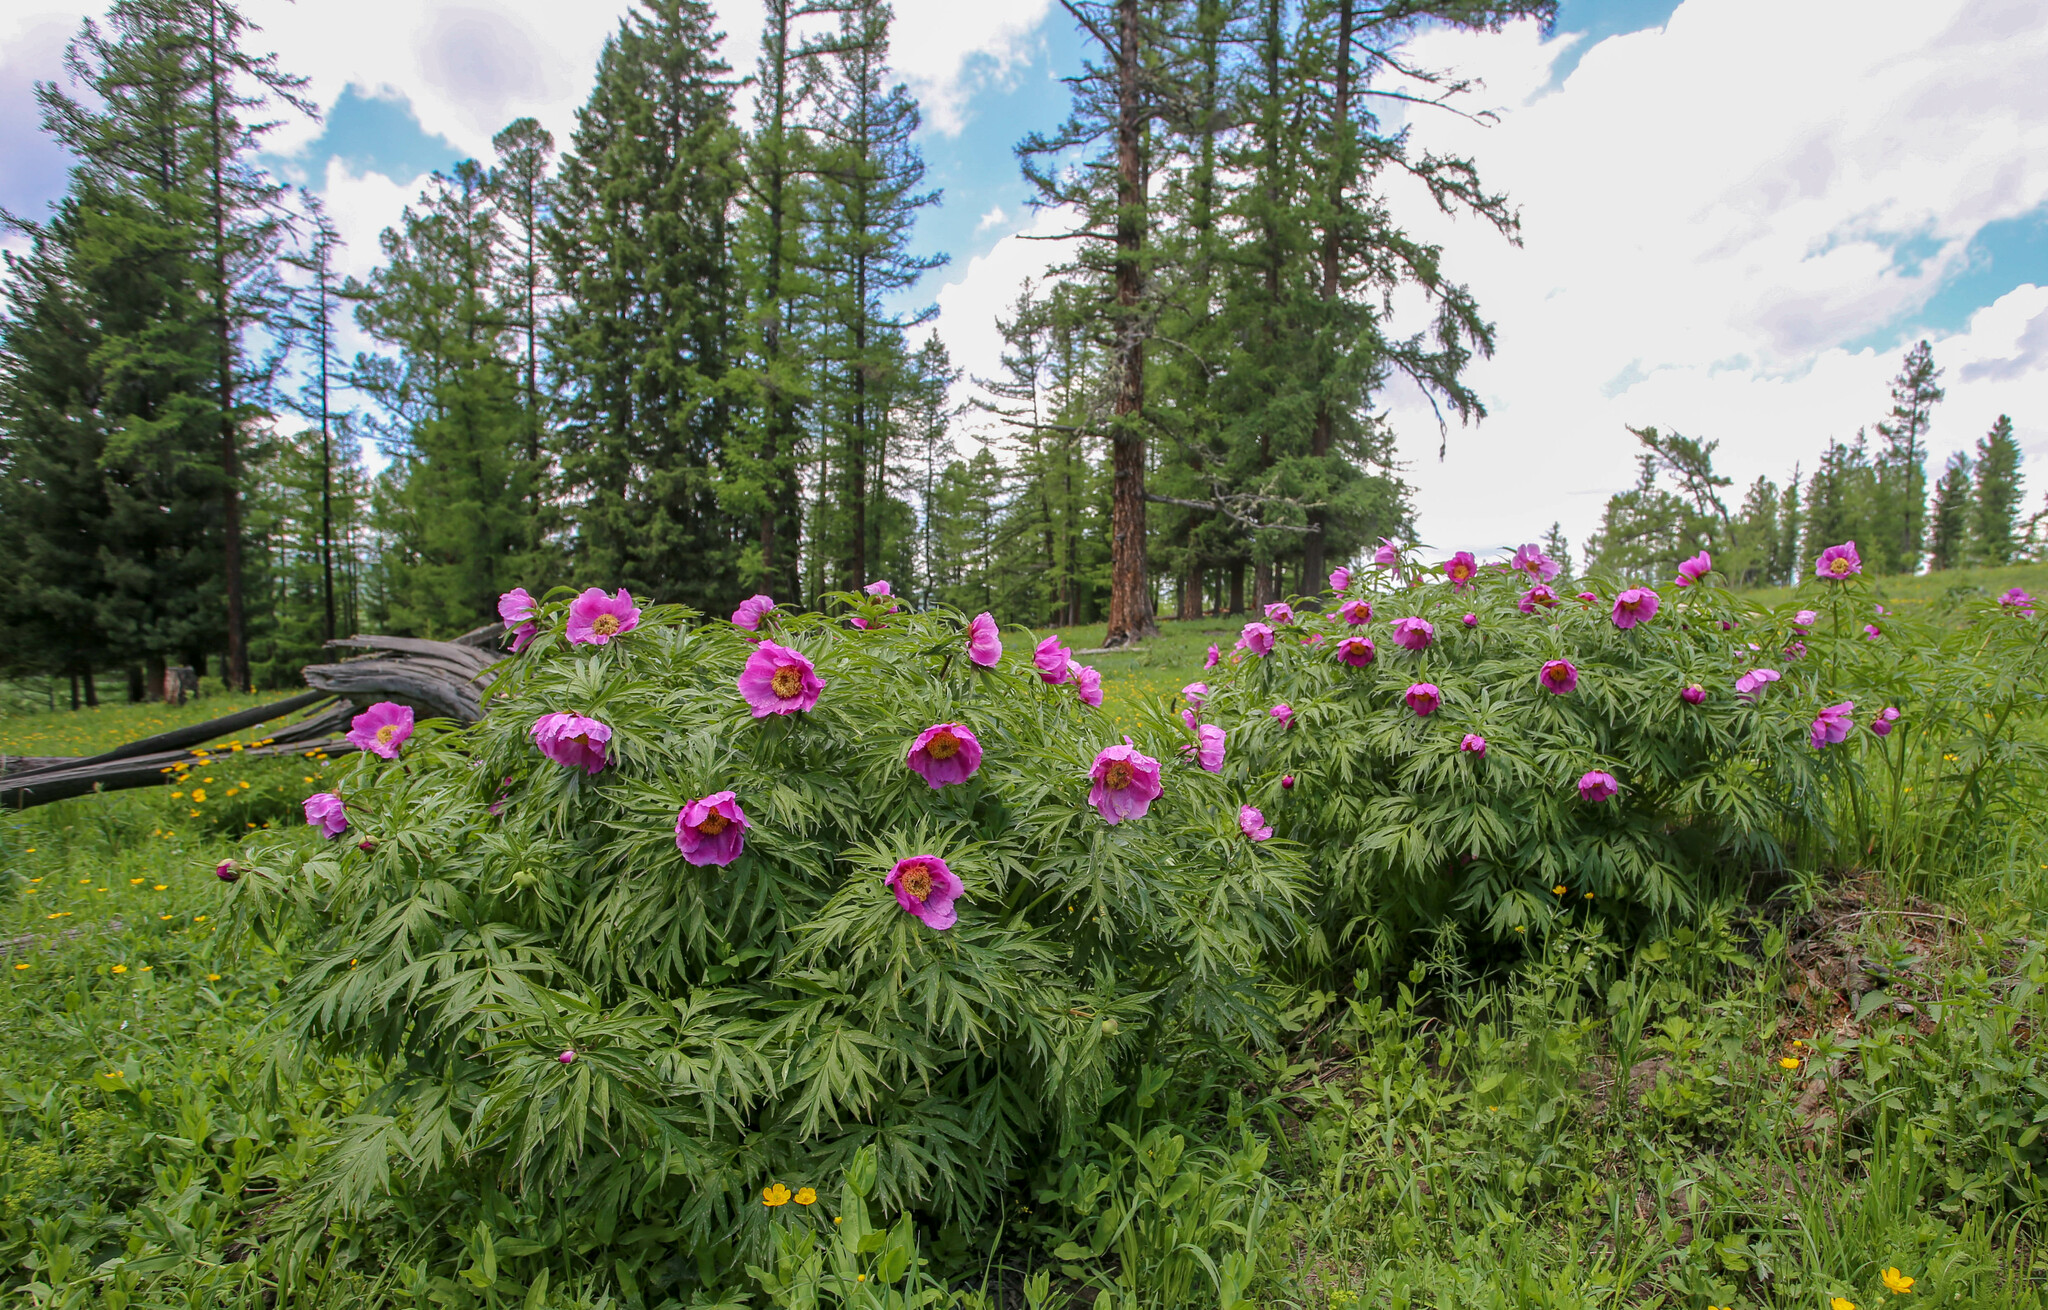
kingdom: Plantae
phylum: Tracheophyta
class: Magnoliopsida
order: Saxifragales
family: Paeoniaceae
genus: Paeonia
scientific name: Paeonia anomala
